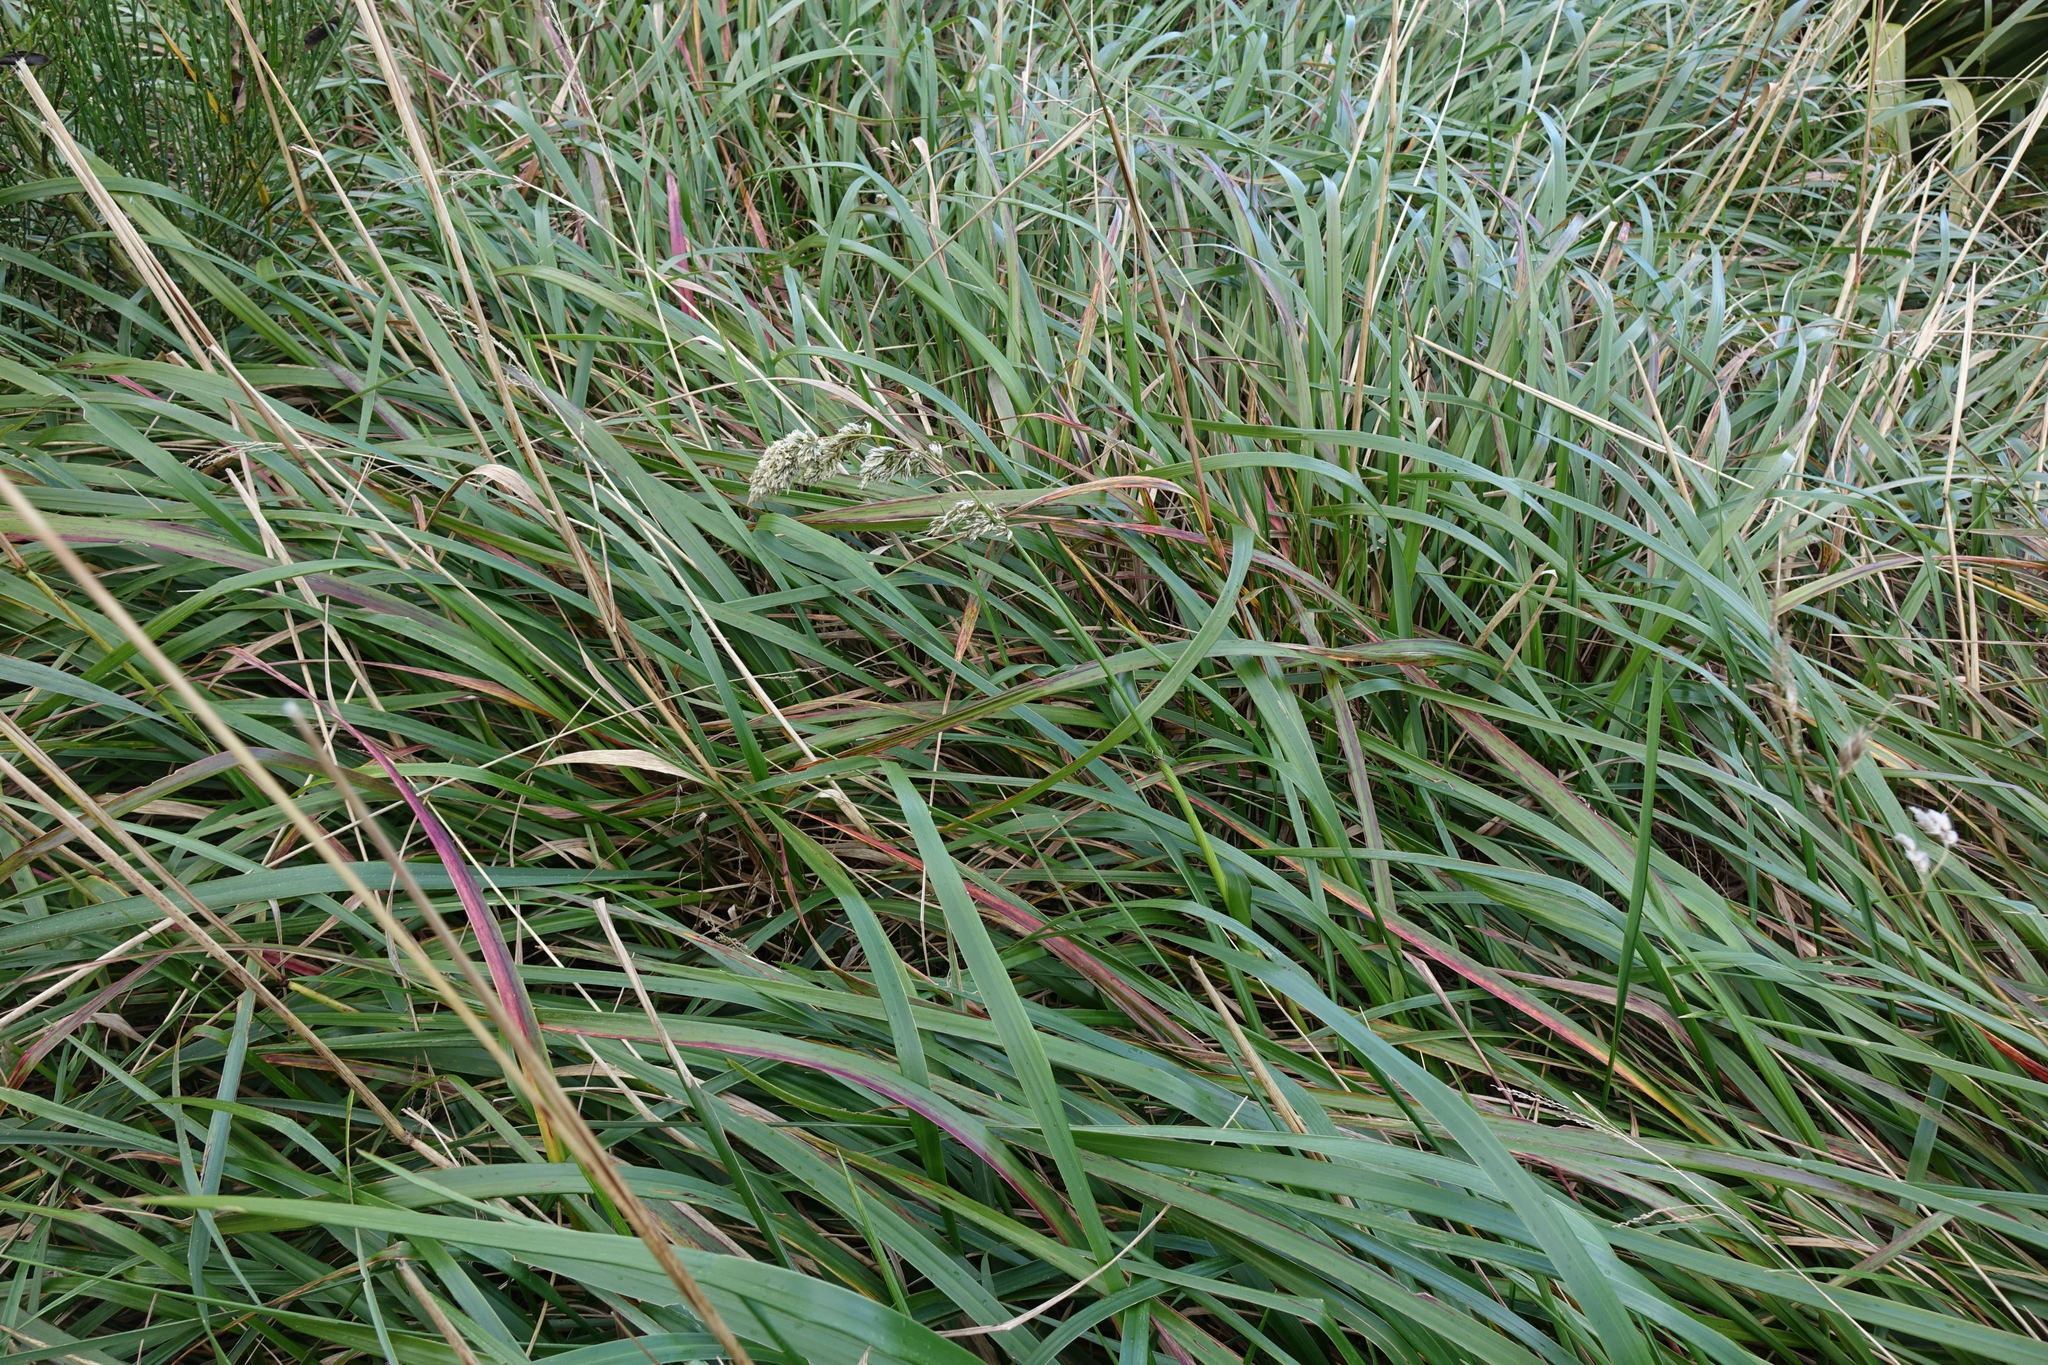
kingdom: Plantae
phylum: Tracheophyta
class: Liliopsida
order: Poales
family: Poaceae
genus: Anthoxanthum
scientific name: Anthoxanthum redolens
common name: Sweet holy grass
